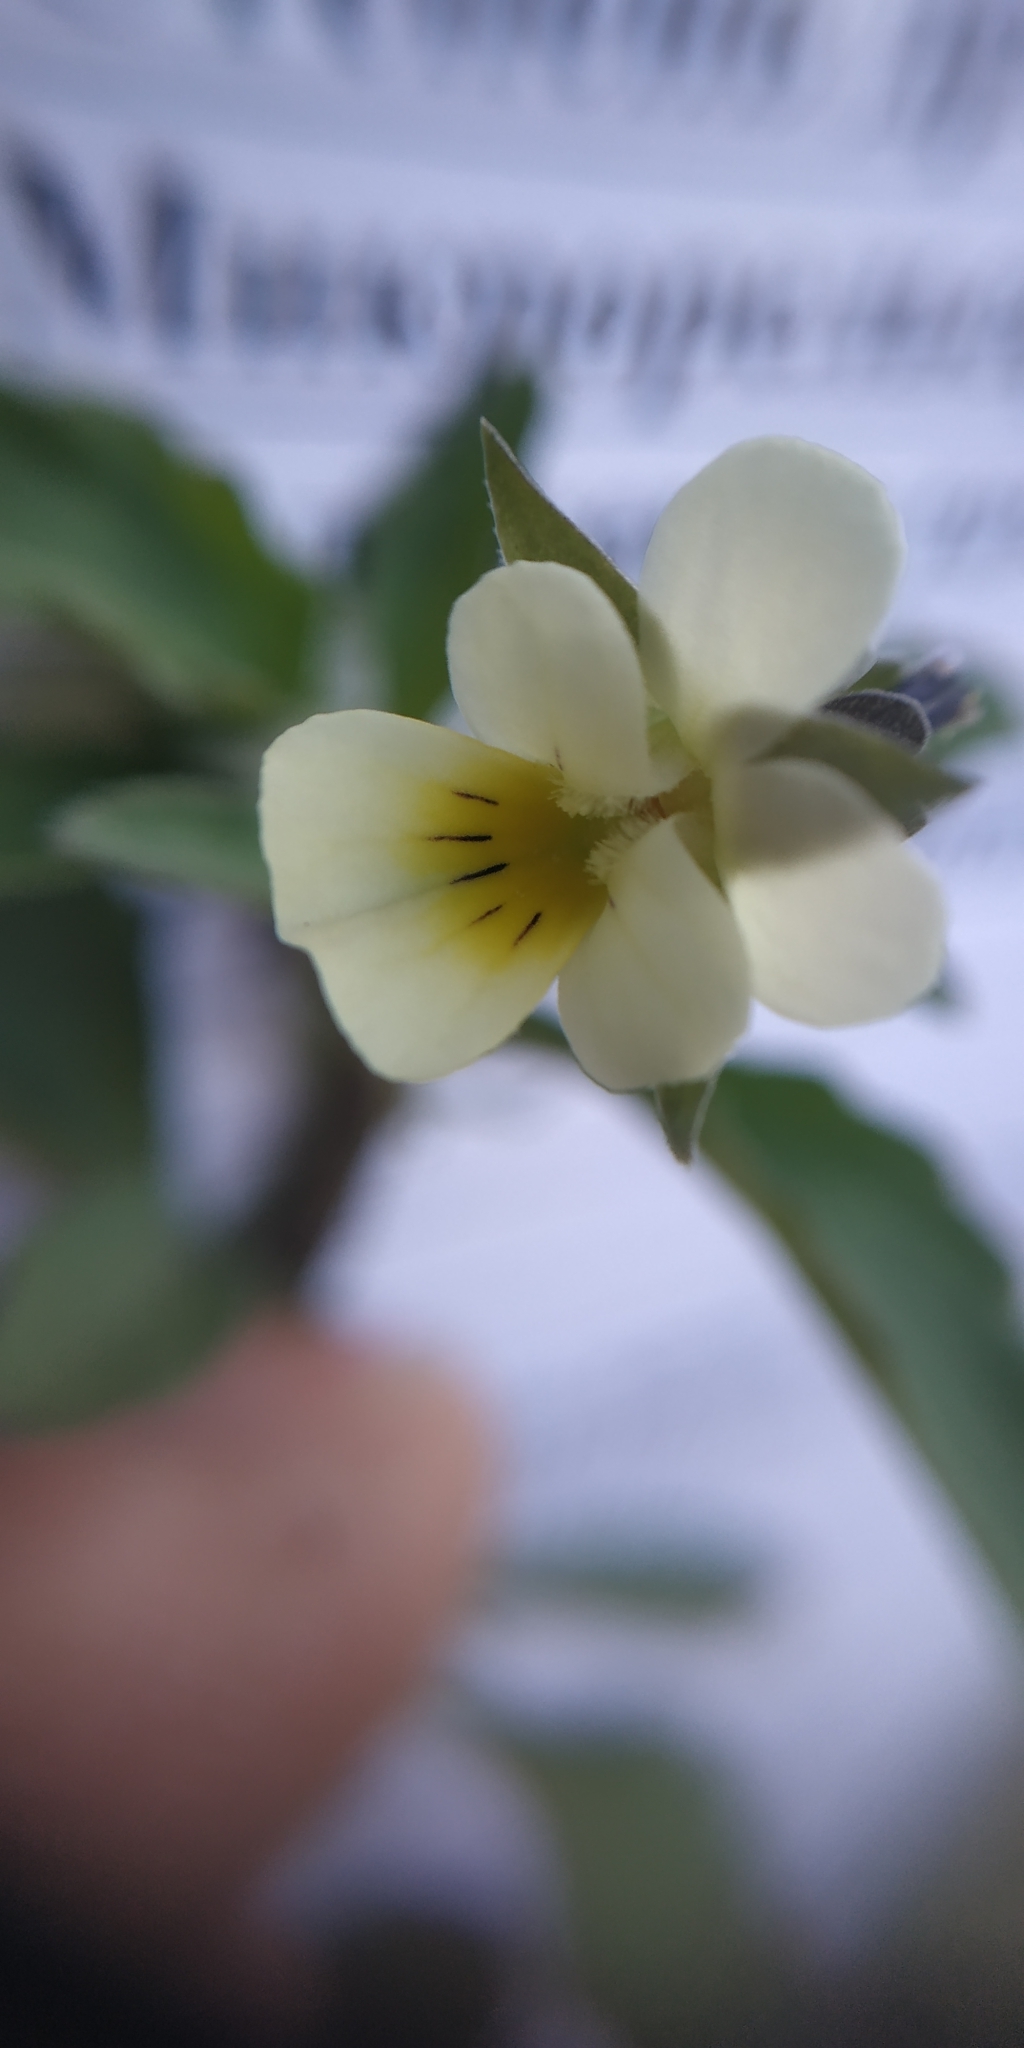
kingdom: Plantae
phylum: Tracheophyta
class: Magnoliopsida
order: Malpighiales
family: Violaceae
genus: Viola
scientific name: Viola arvensis
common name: Field pansy
